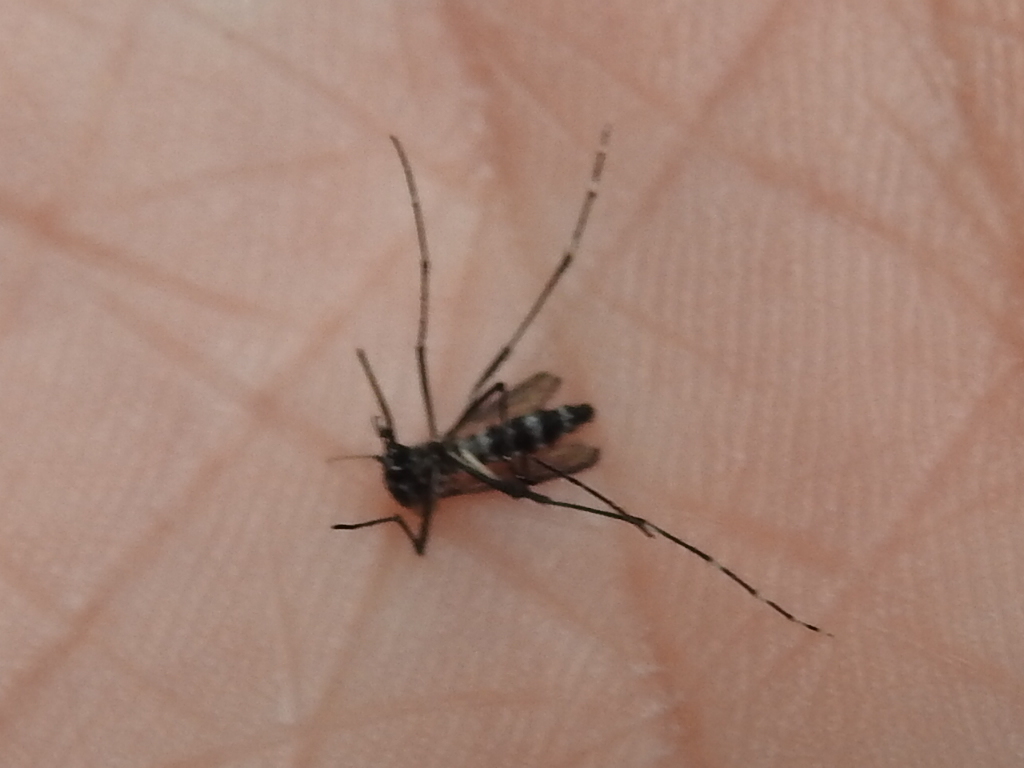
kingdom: Animalia
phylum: Arthropoda
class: Insecta
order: Diptera
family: Culicidae
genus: Aedes
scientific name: Aedes albopictus
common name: Tiger mosquito
